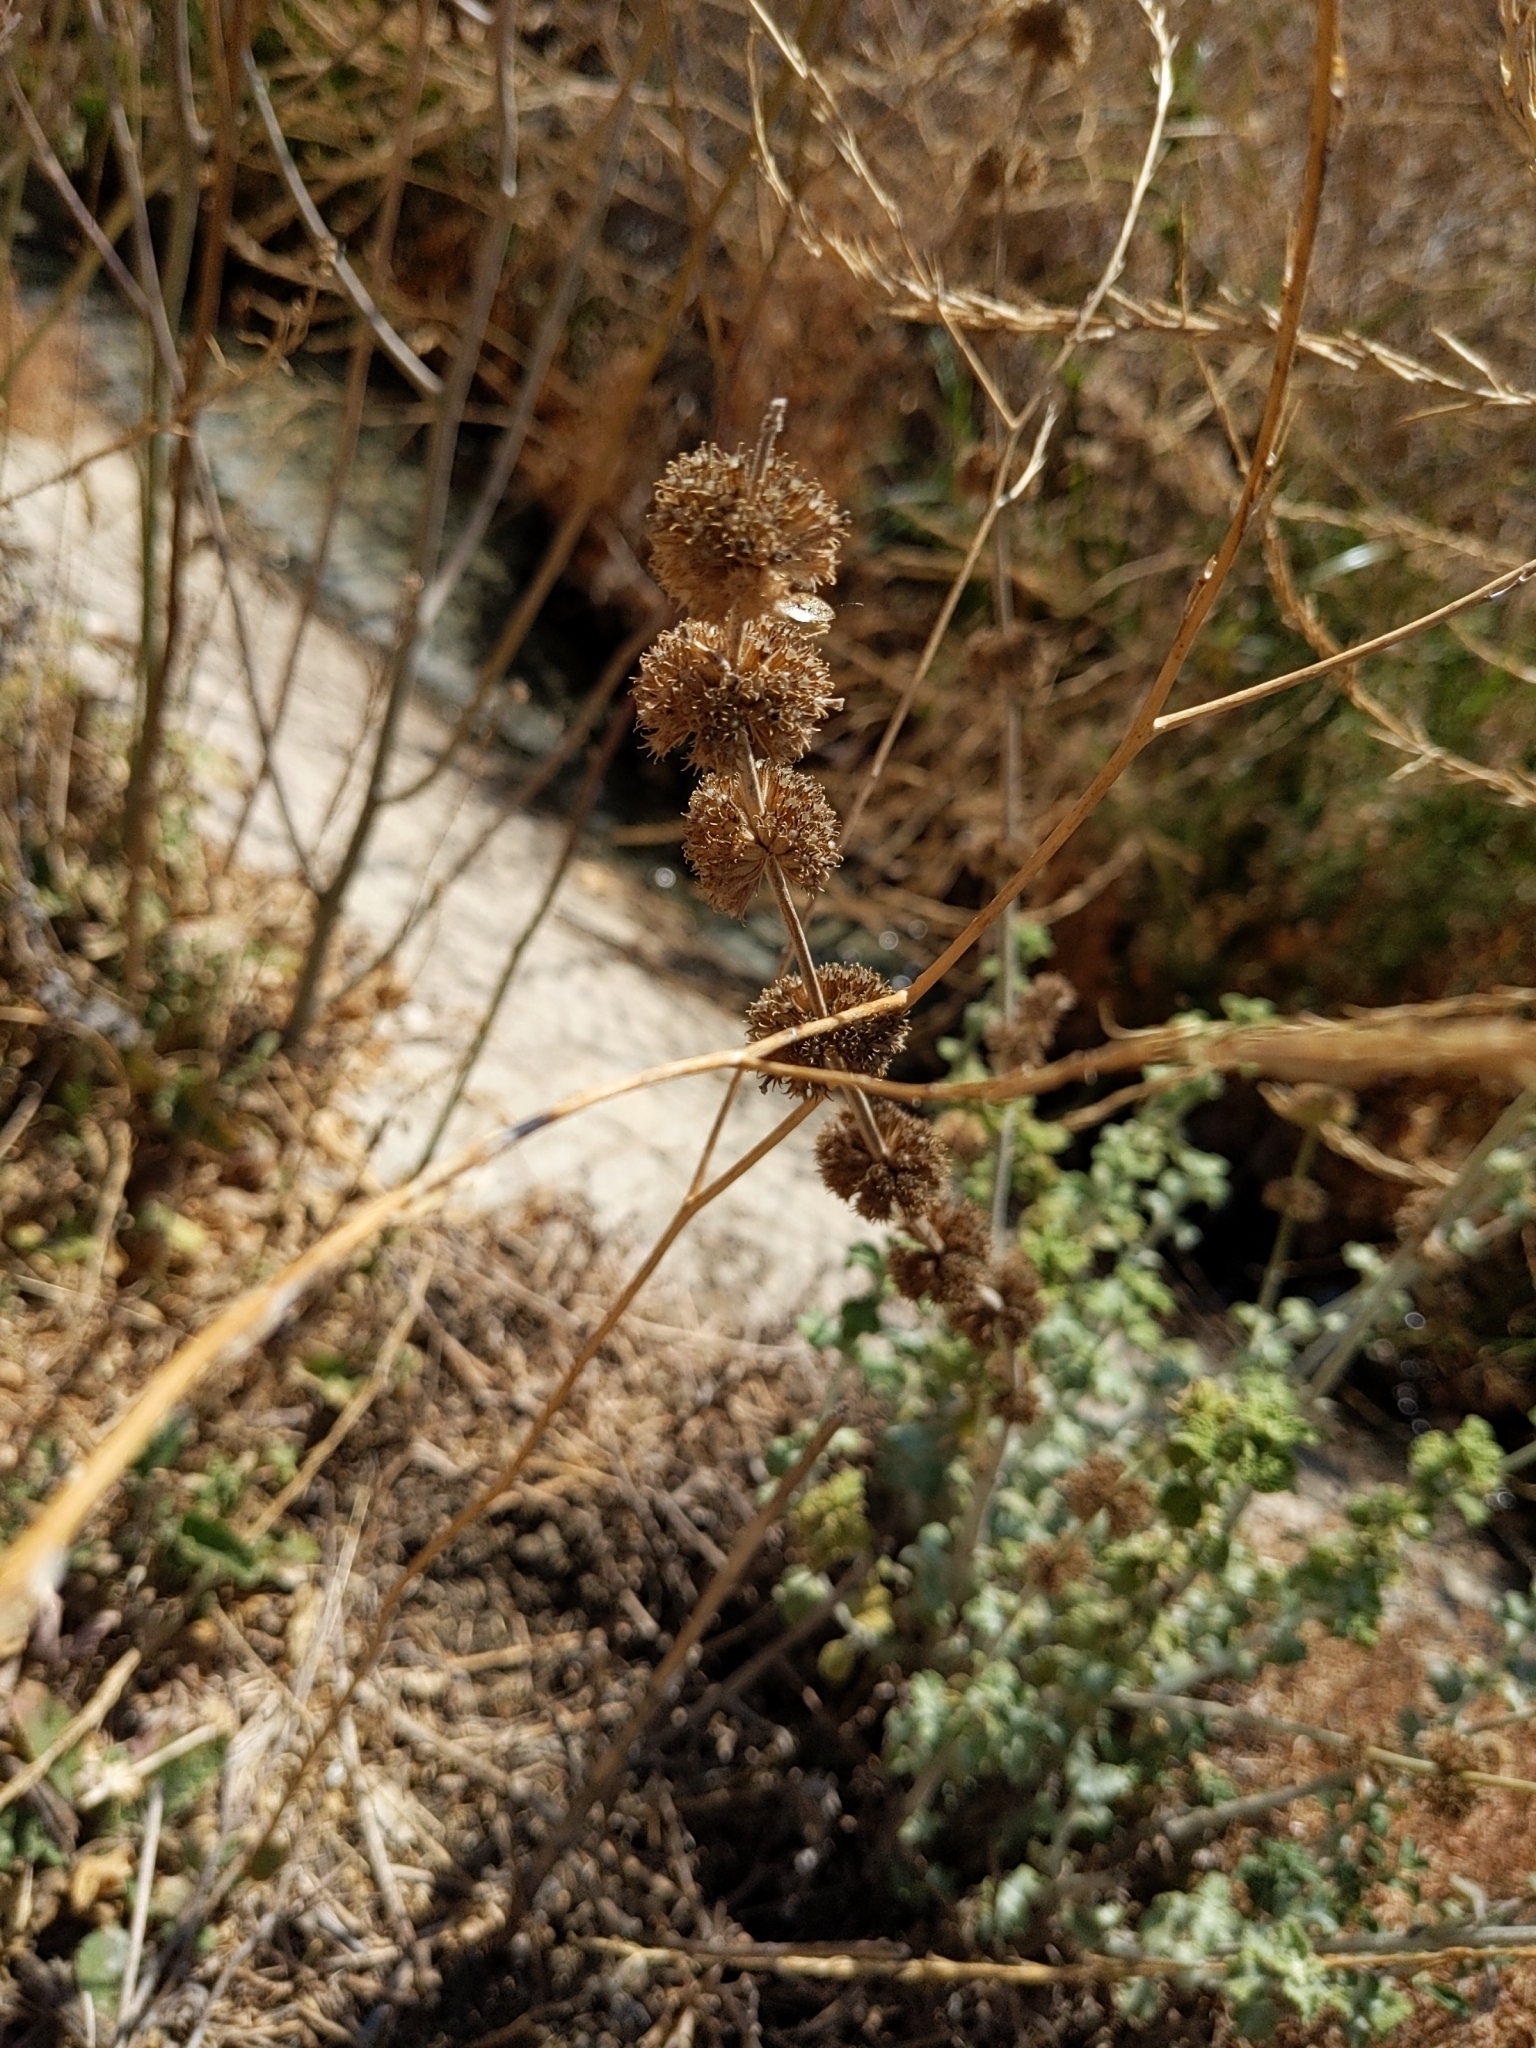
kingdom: Plantae
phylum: Tracheophyta
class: Magnoliopsida
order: Lamiales
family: Lamiaceae
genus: Marrubium
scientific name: Marrubium vulgare
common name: Horehound
